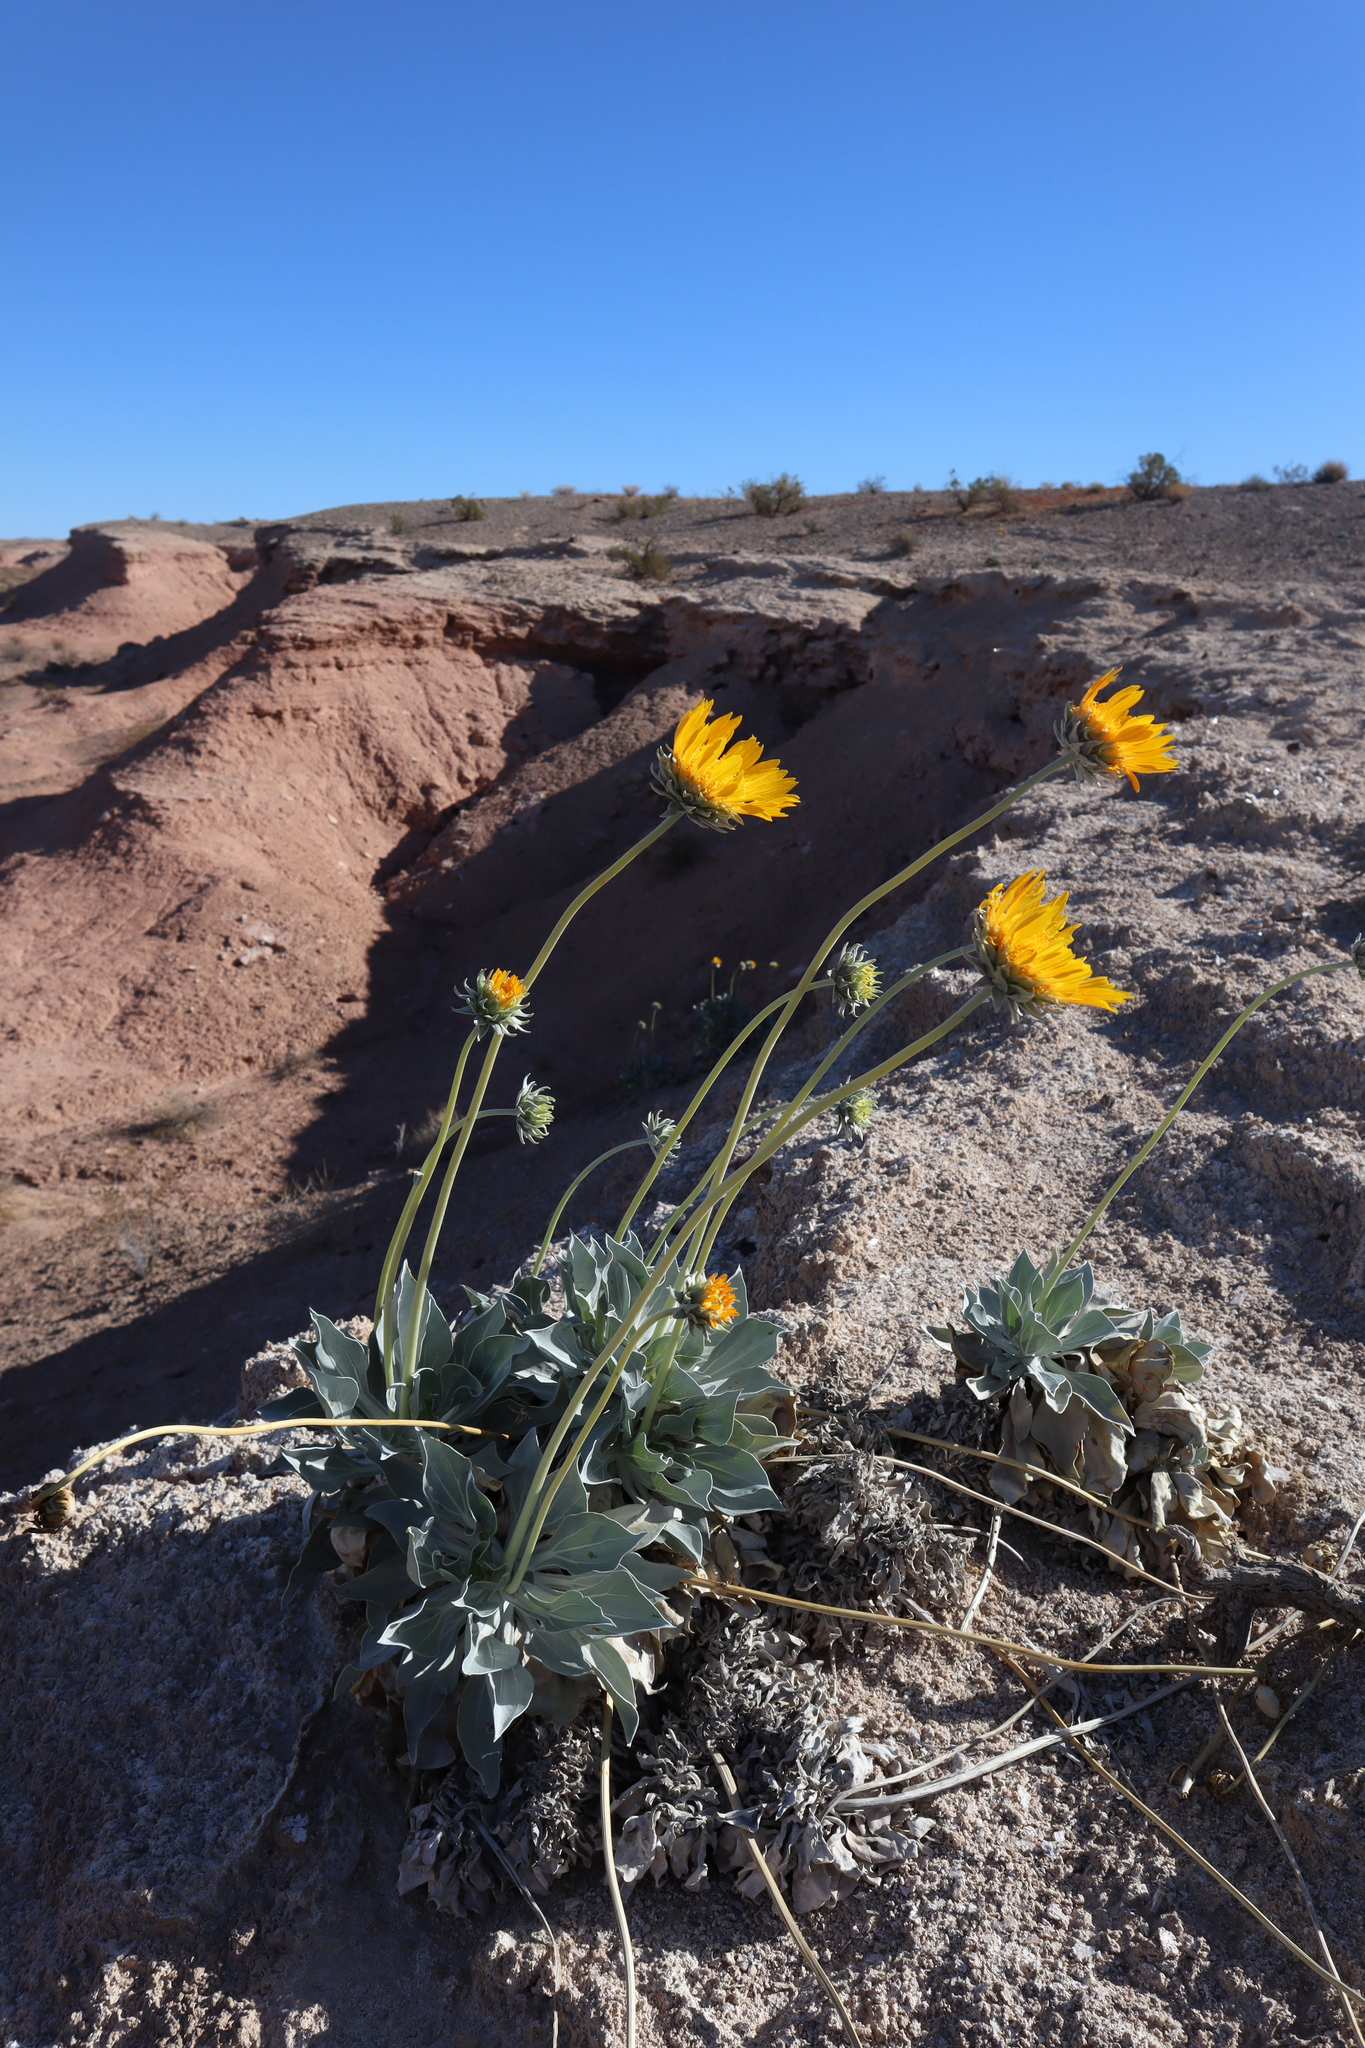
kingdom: Plantae
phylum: Tracheophyta
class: Magnoliopsida
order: Asterales
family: Asteraceae
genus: Enceliopsis
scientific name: Enceliopsis argophylla
